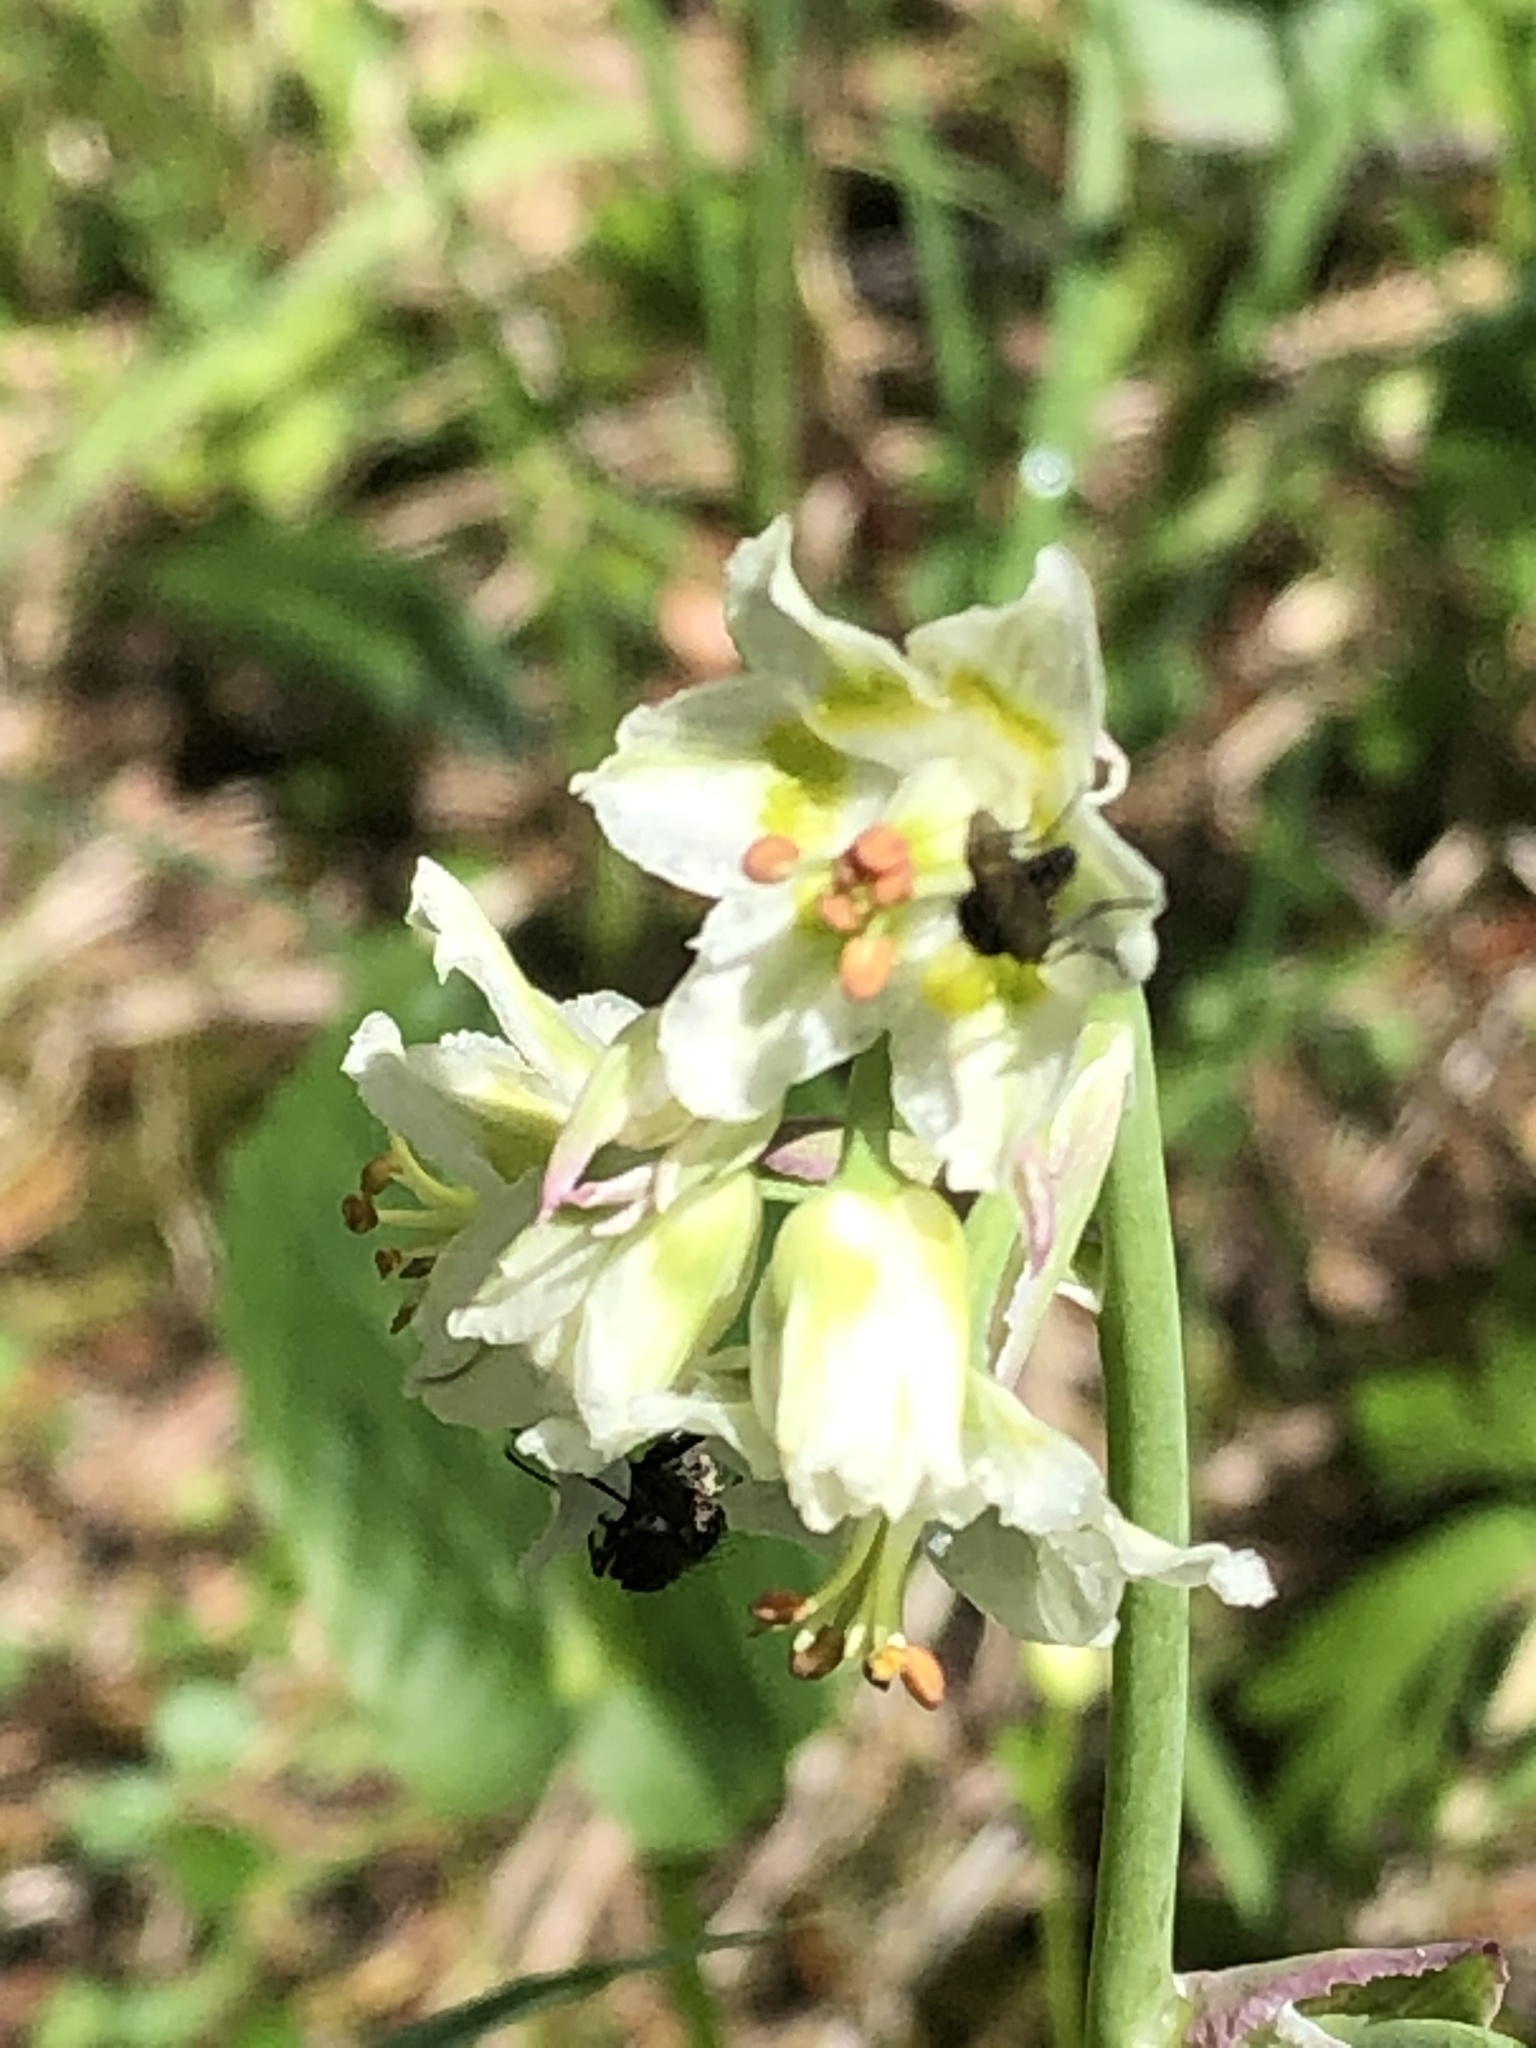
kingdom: Plantae
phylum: Tracheophyta
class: Liliopsida
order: Liliales
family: Melanthiaceae
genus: Anticlea
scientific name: Anticlea elegans
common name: Mountain death camas
